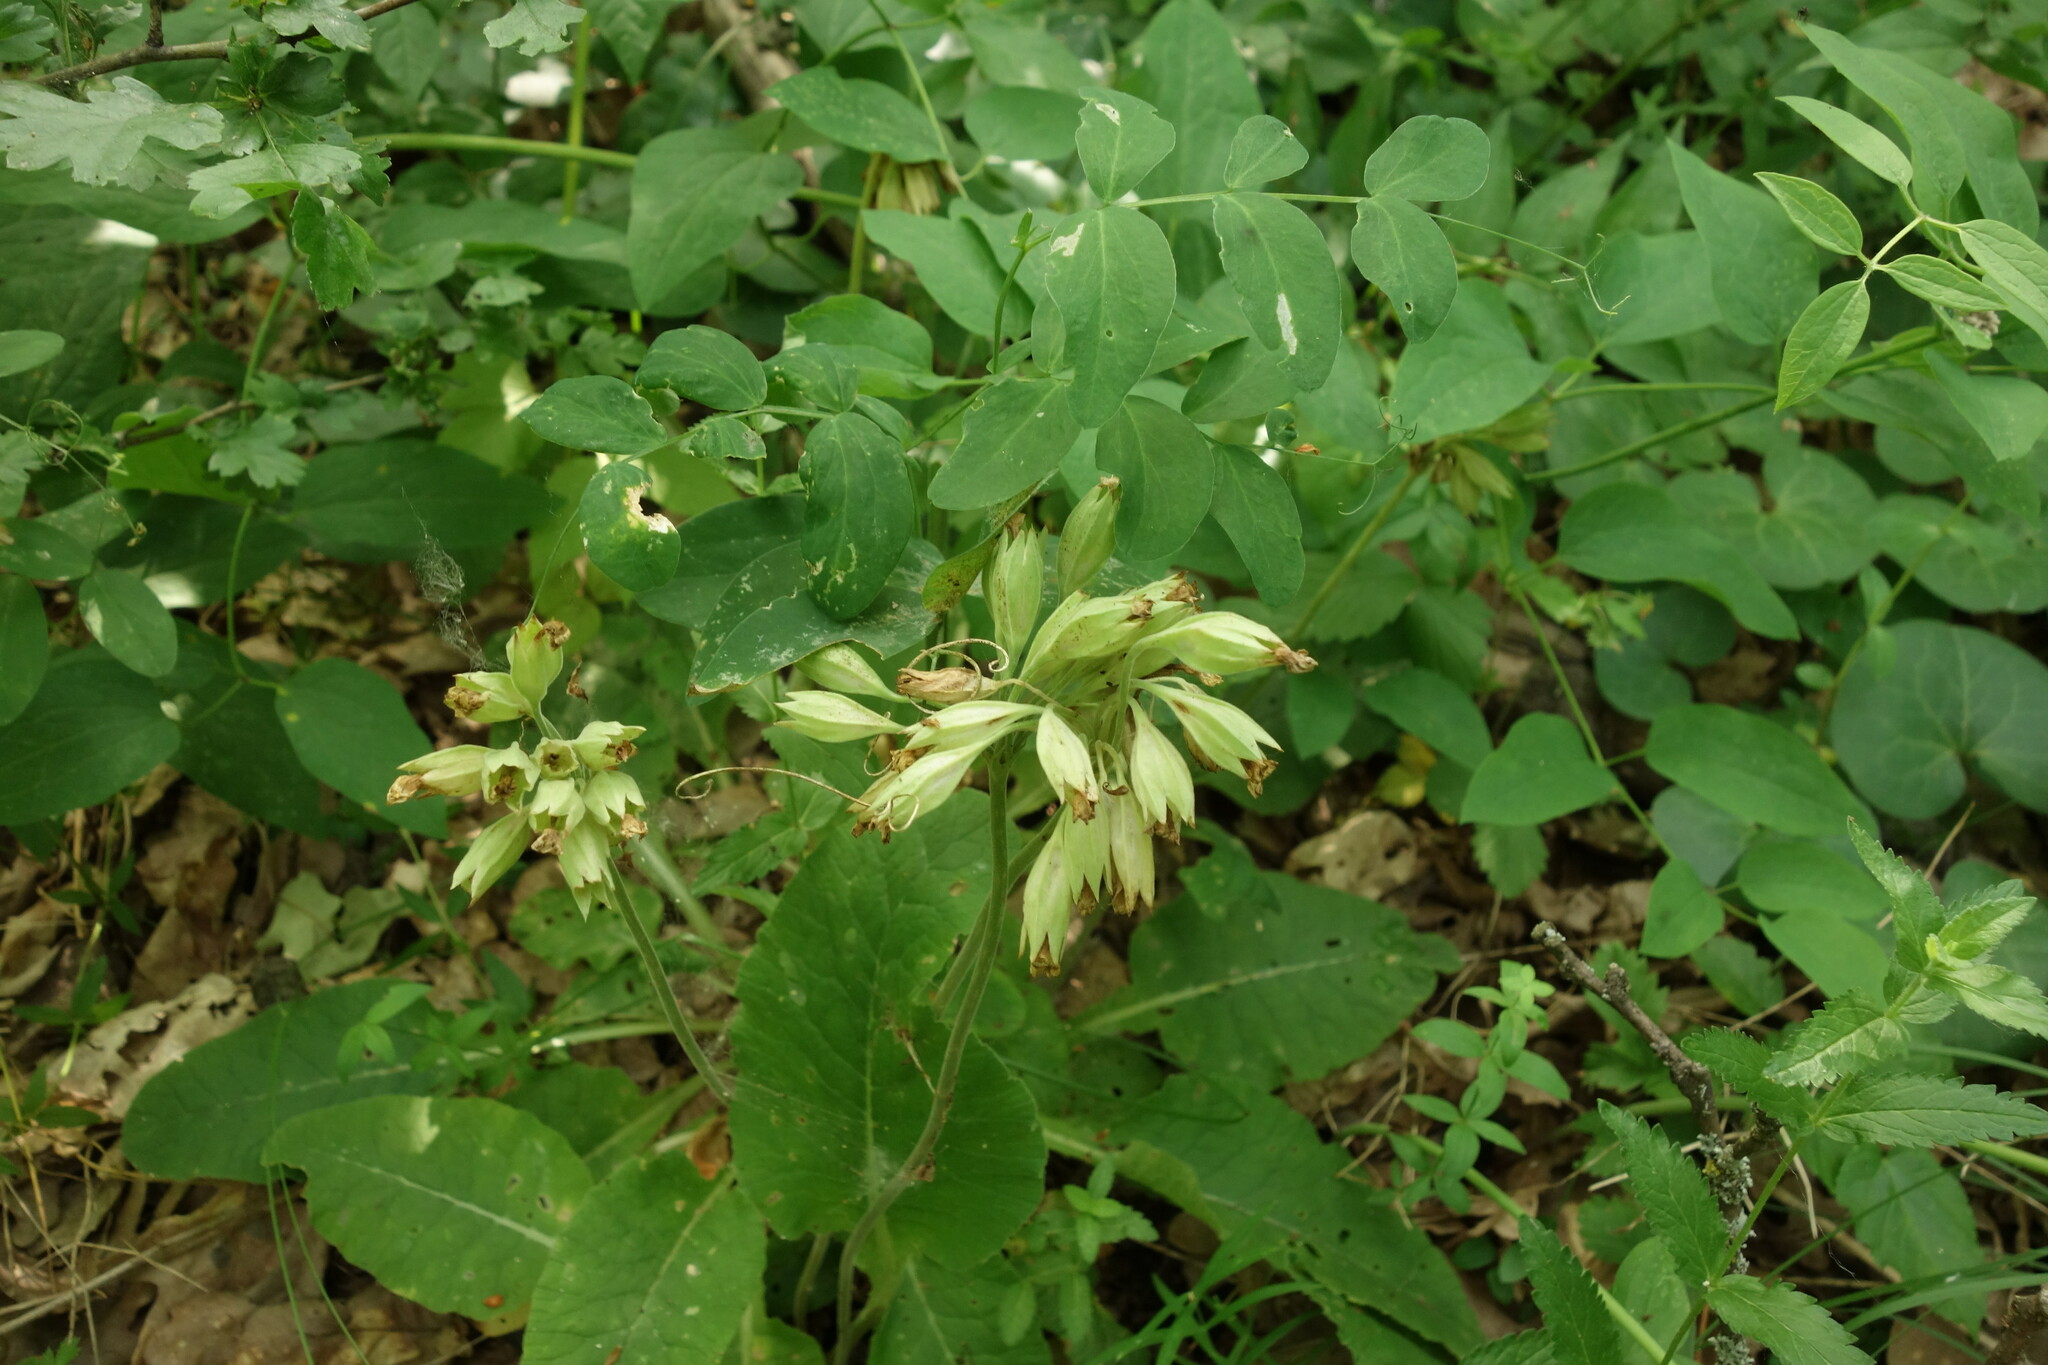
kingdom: Plantae
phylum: Tracheophyta
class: Magnoliopsida
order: Ericales
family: Primulaceae
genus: Primula
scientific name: Primula veris
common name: Cowslip
